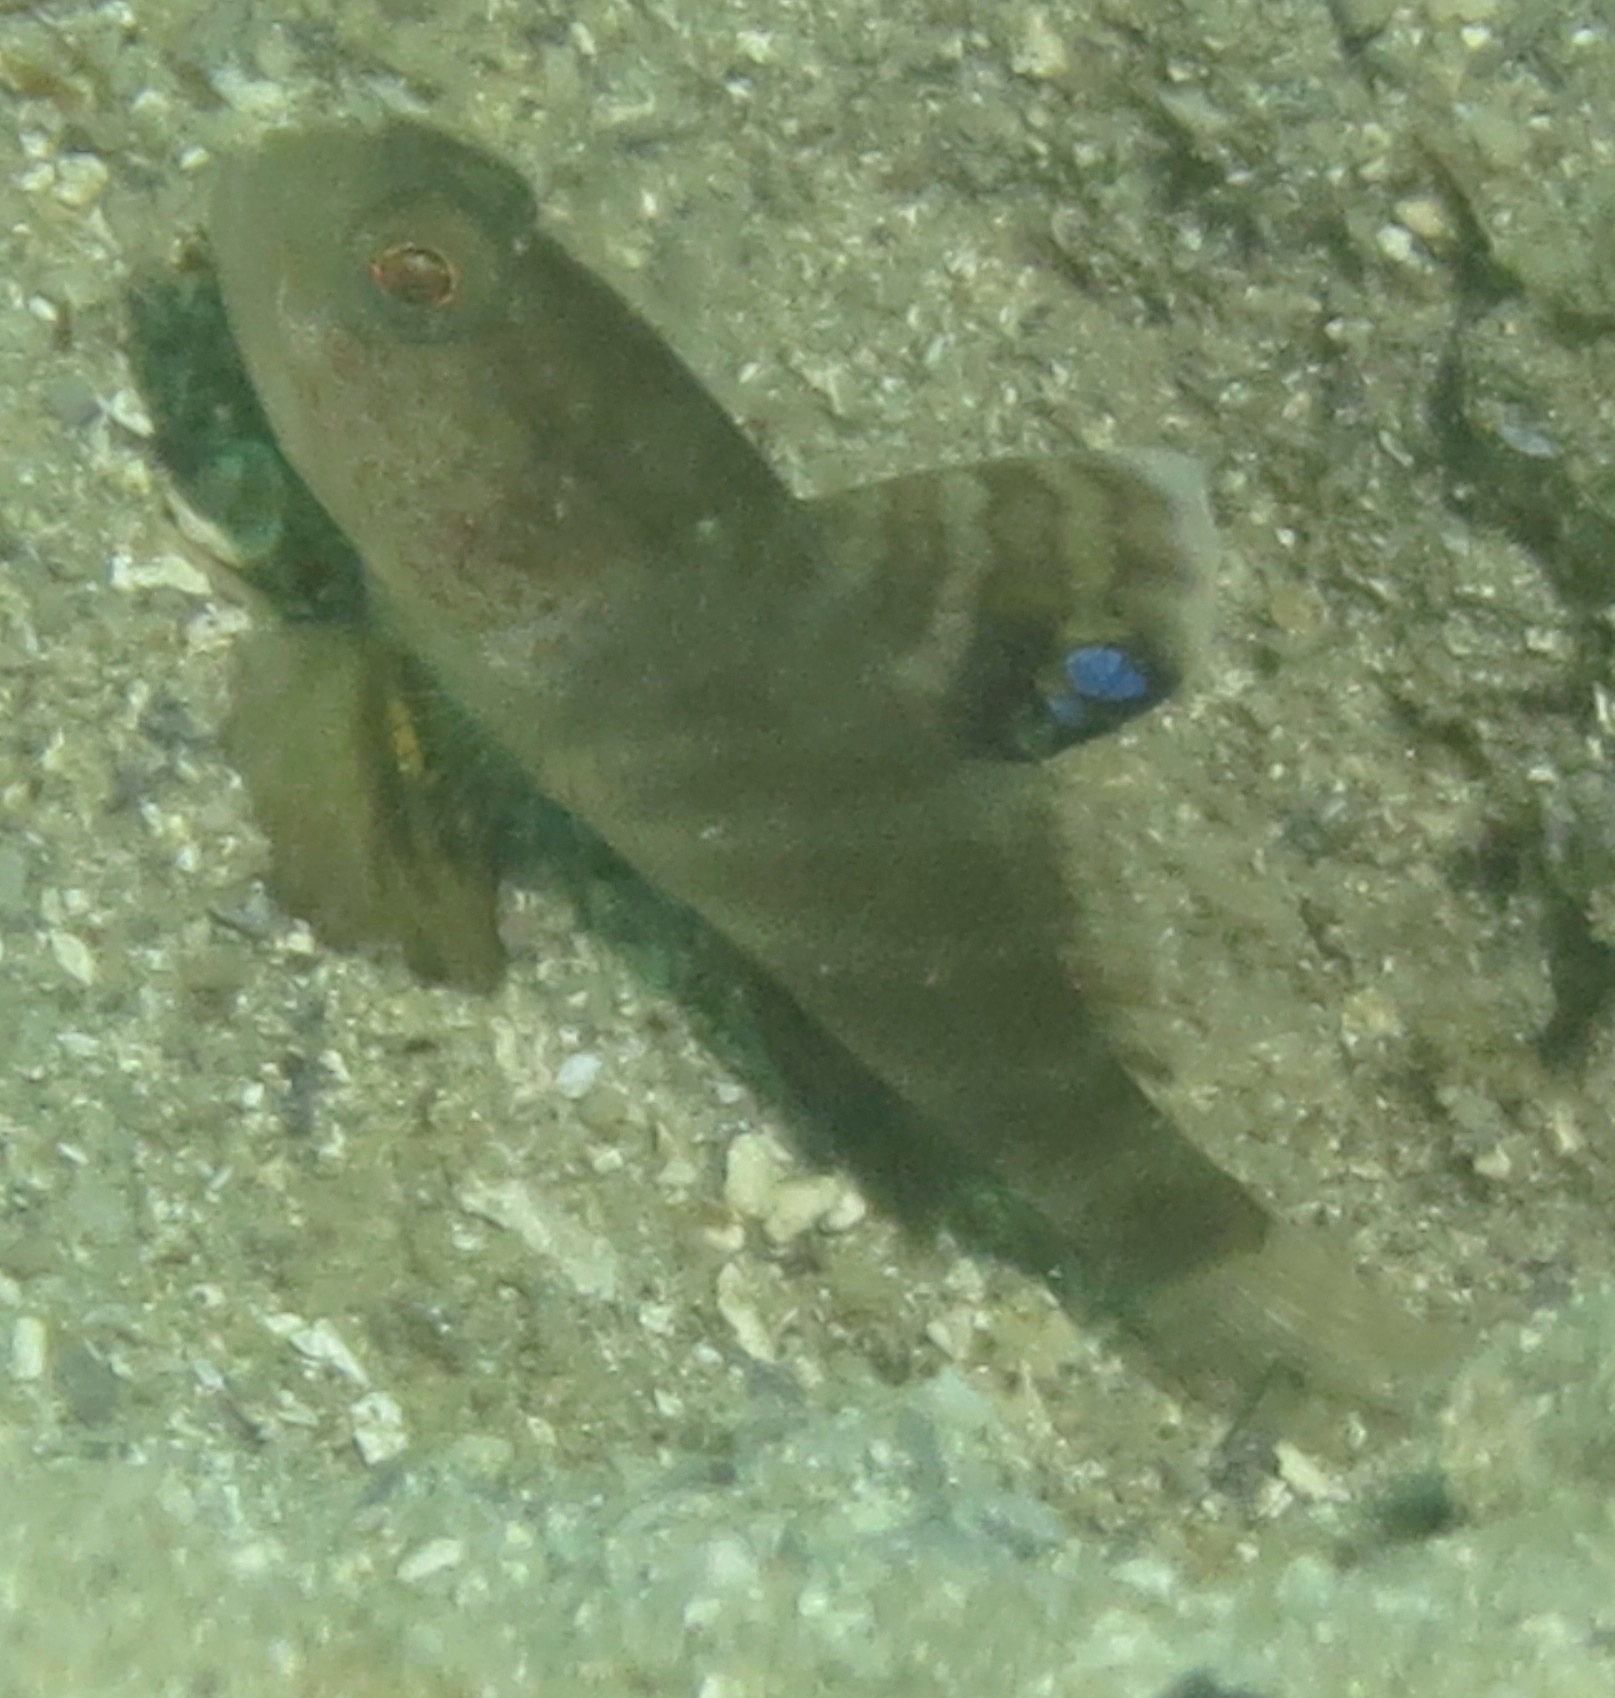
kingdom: Animalia
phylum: Chordata
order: Perciformes
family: Gobiidae
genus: Mahidolia
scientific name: Mahidolia mystacina
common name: Smiling goby
